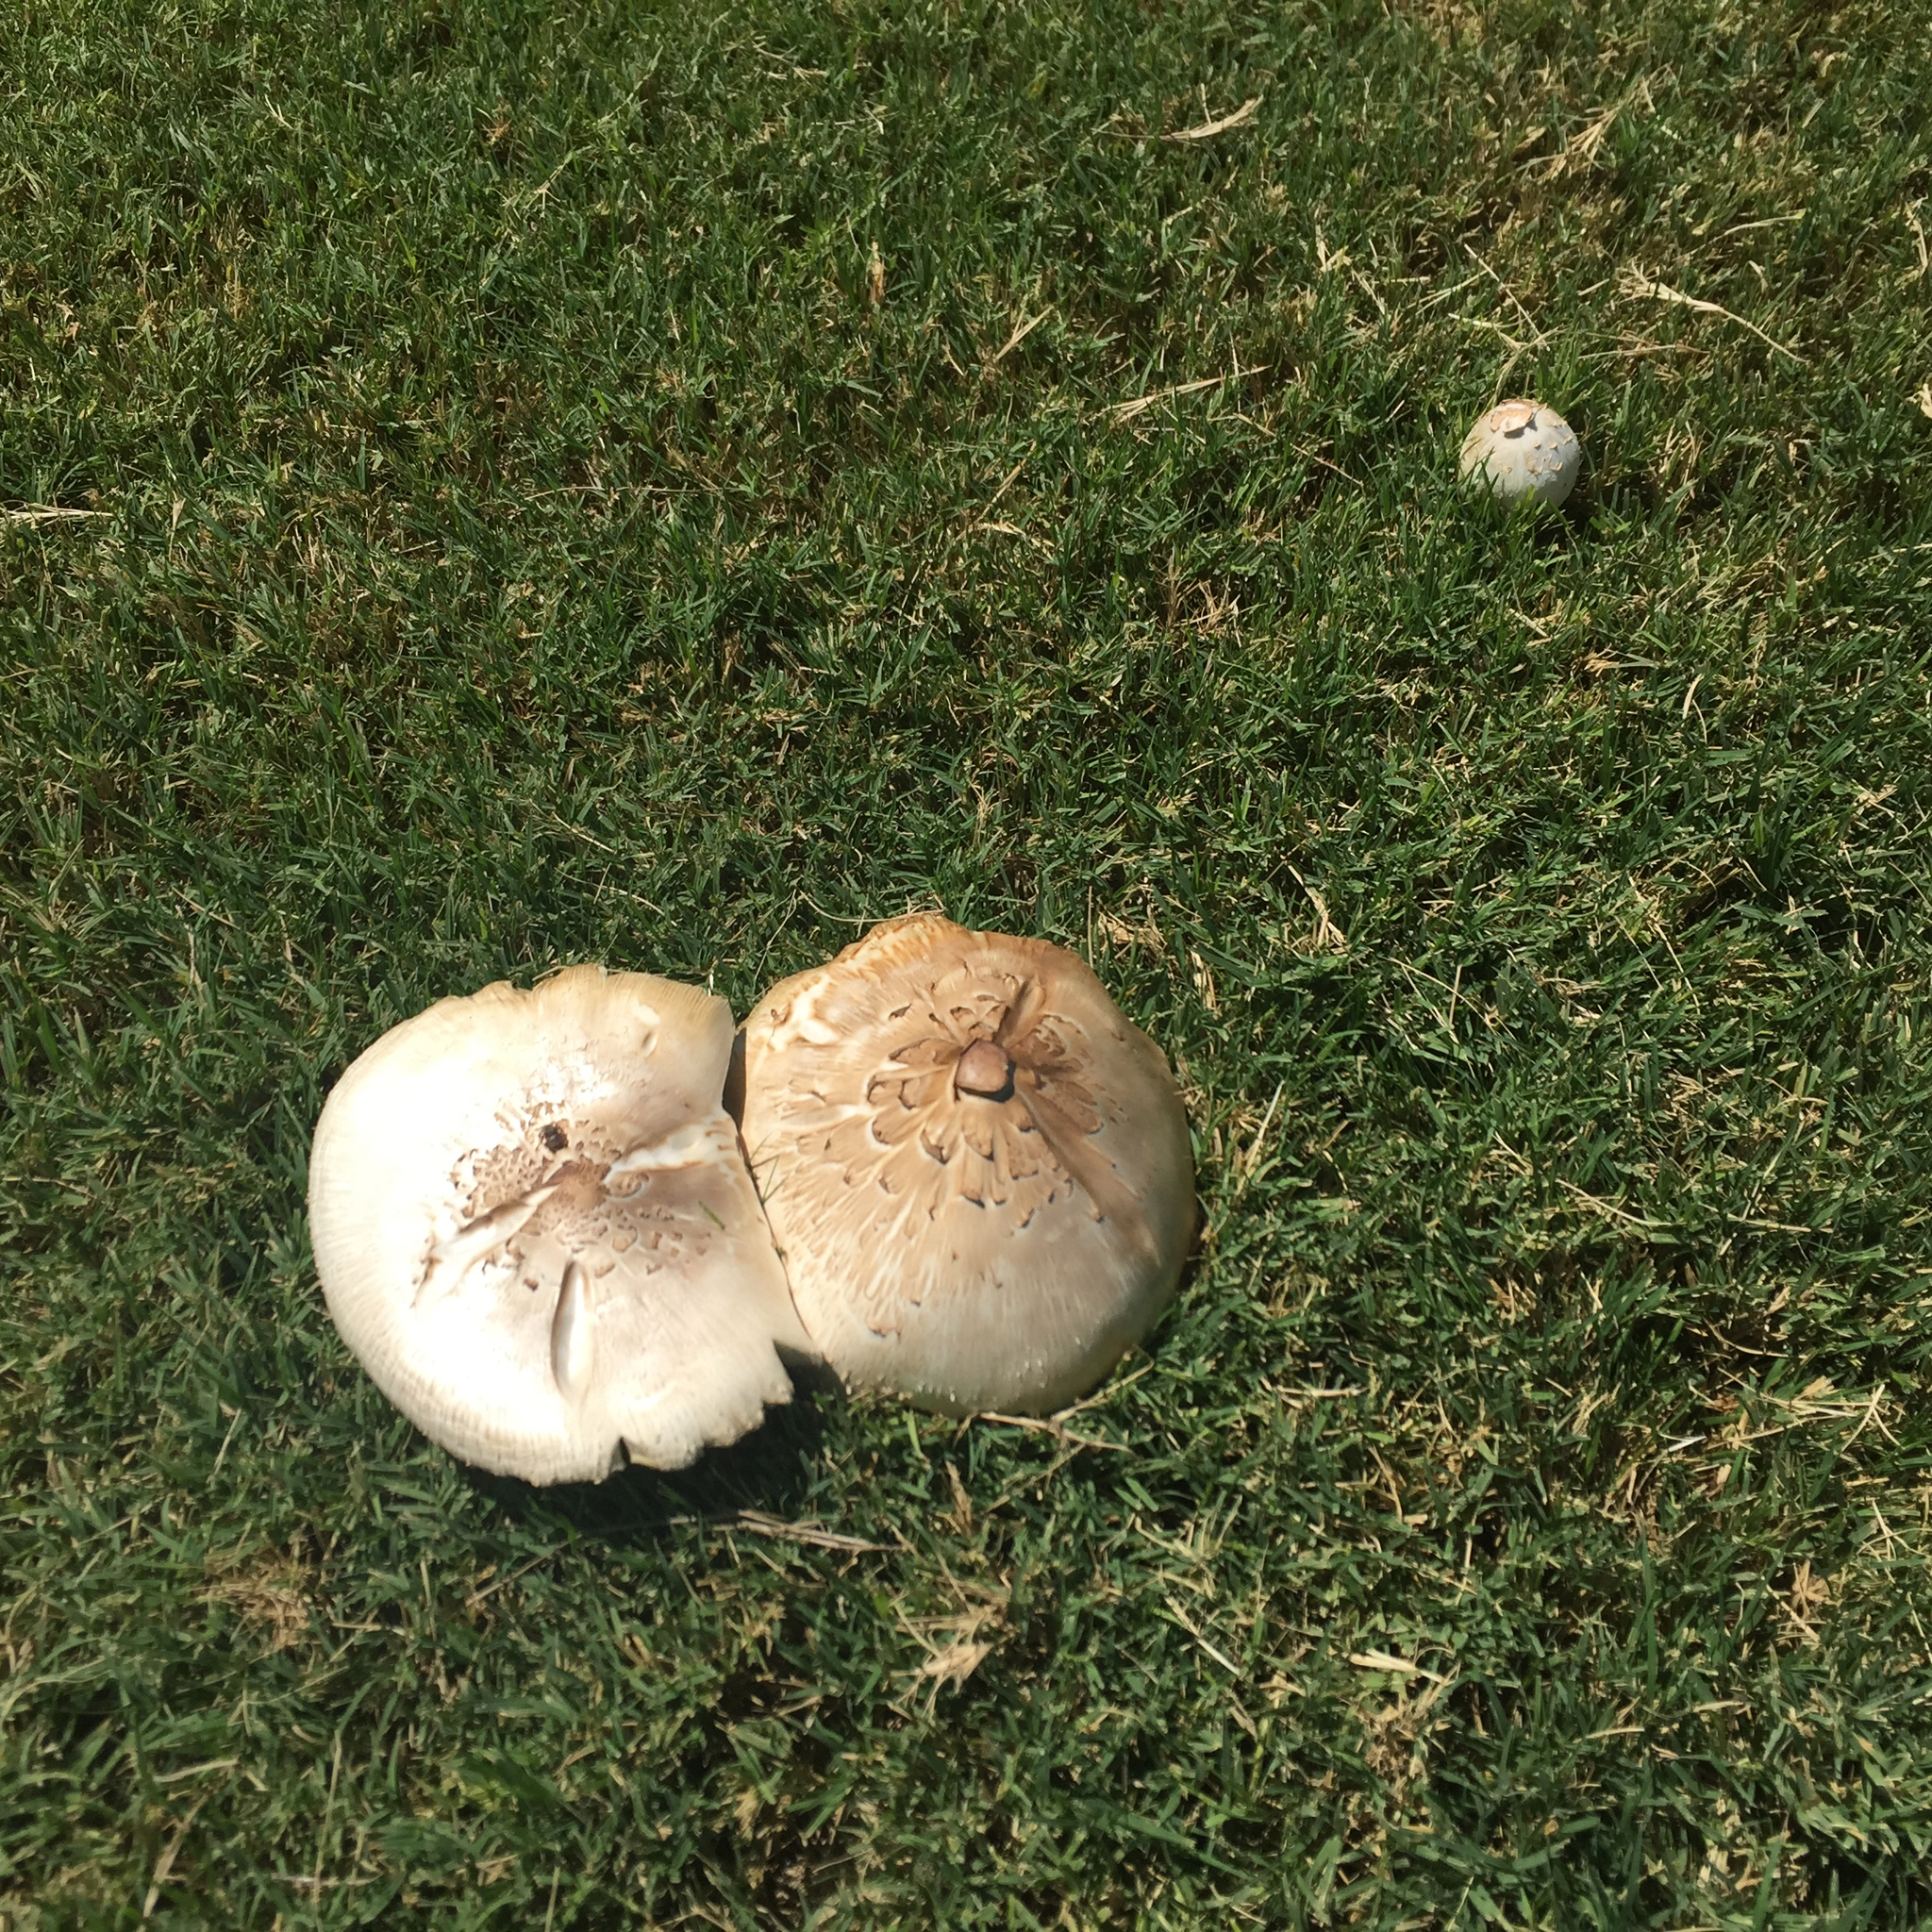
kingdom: Fungi
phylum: Basidiomycota
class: Agaricomycetes
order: Agaricales
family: Agaricaceae
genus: Chlorophyllum
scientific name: Chlorophyllum molybdites
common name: False parasol
